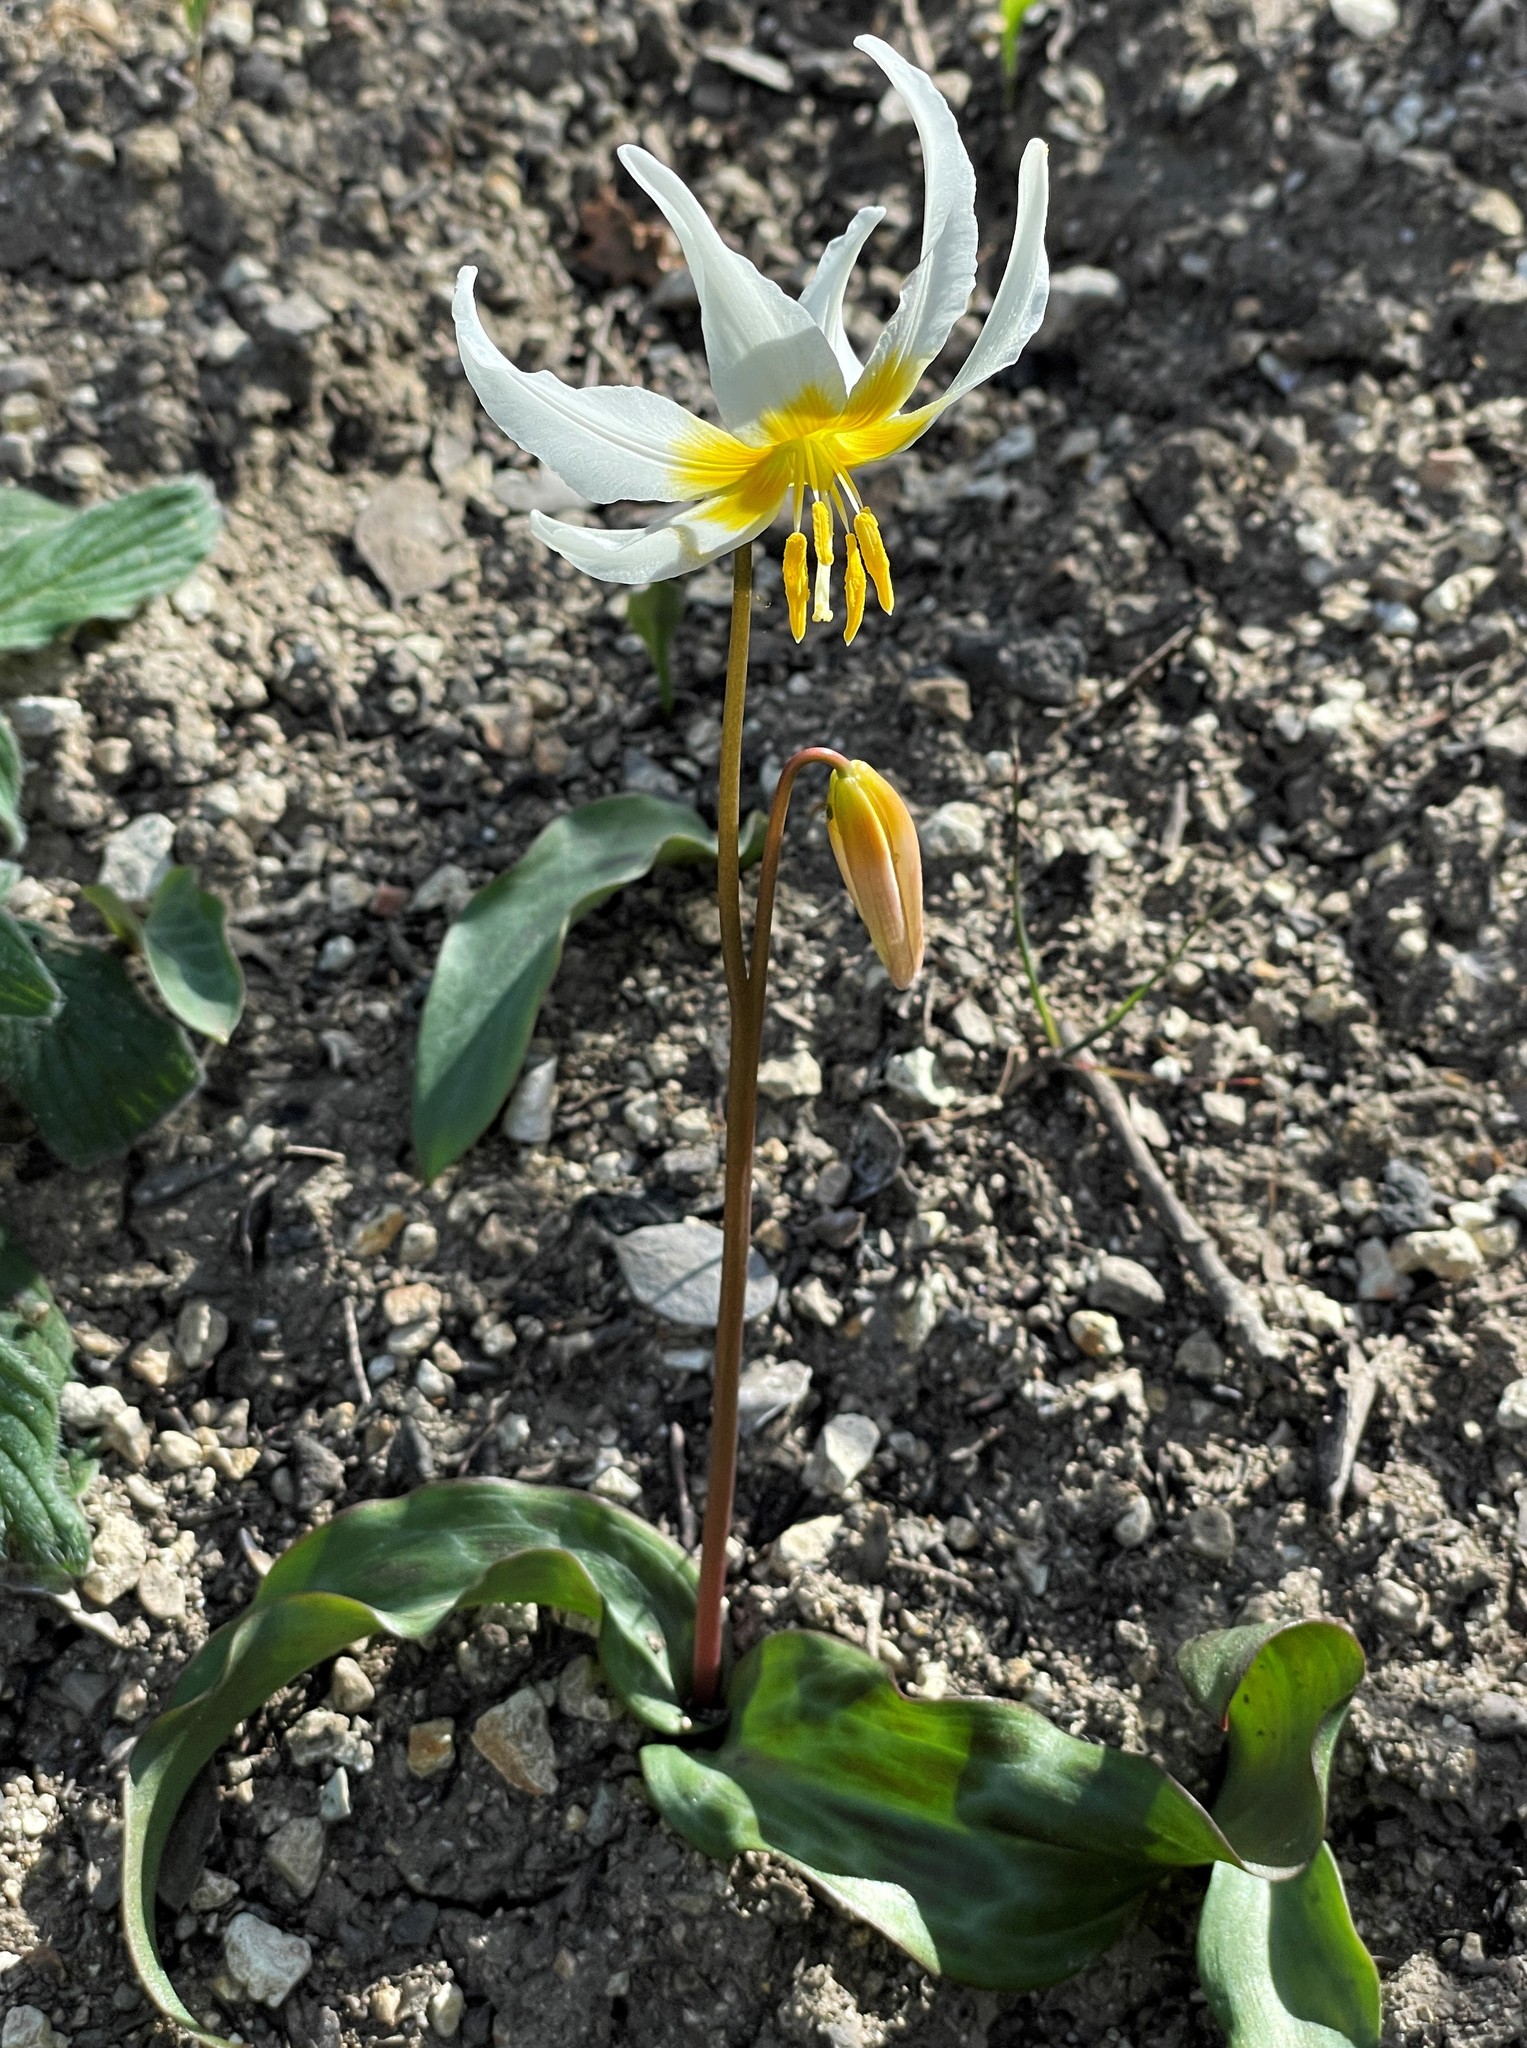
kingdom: Plantae
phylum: Tracheophyta
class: Liliopsida
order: Liliales
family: Liliaceae
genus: Erythronium
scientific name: Erythronium helenae
